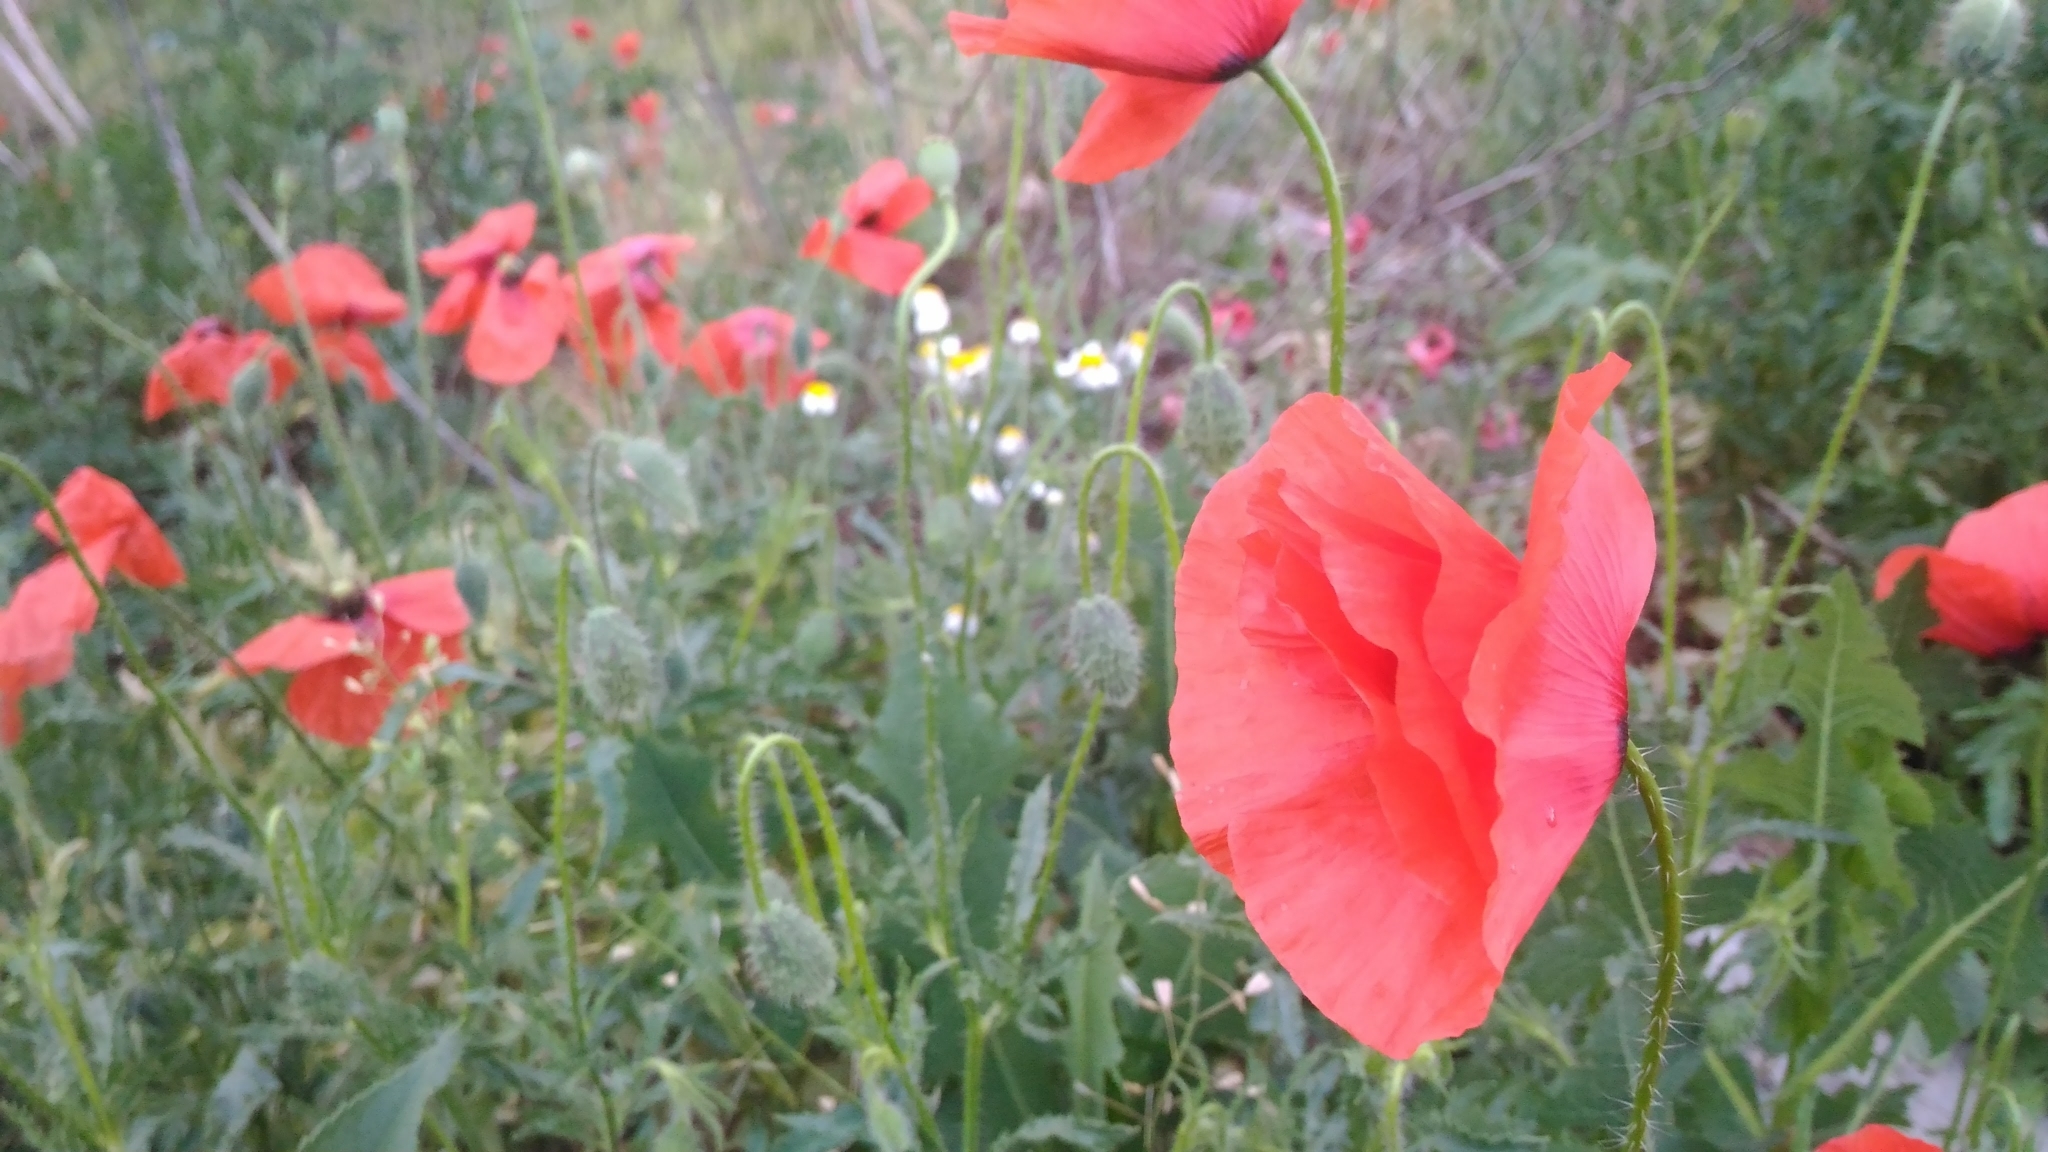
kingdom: Plantae
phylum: Tracheophyta
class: Magnoliopsida
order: Ranunculales
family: Papaveraceae
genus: Papaver
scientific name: Papaver rhoeas
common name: Corn poppy
